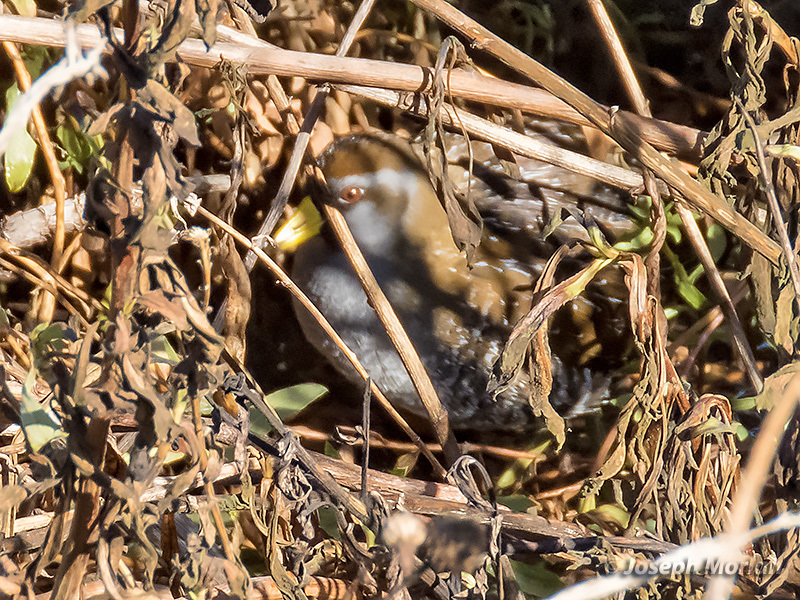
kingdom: Animalia
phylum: Chordata
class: Aves
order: Gruiformes
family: Rallidae
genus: Porzana
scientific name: Porzana carolina
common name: Sora
